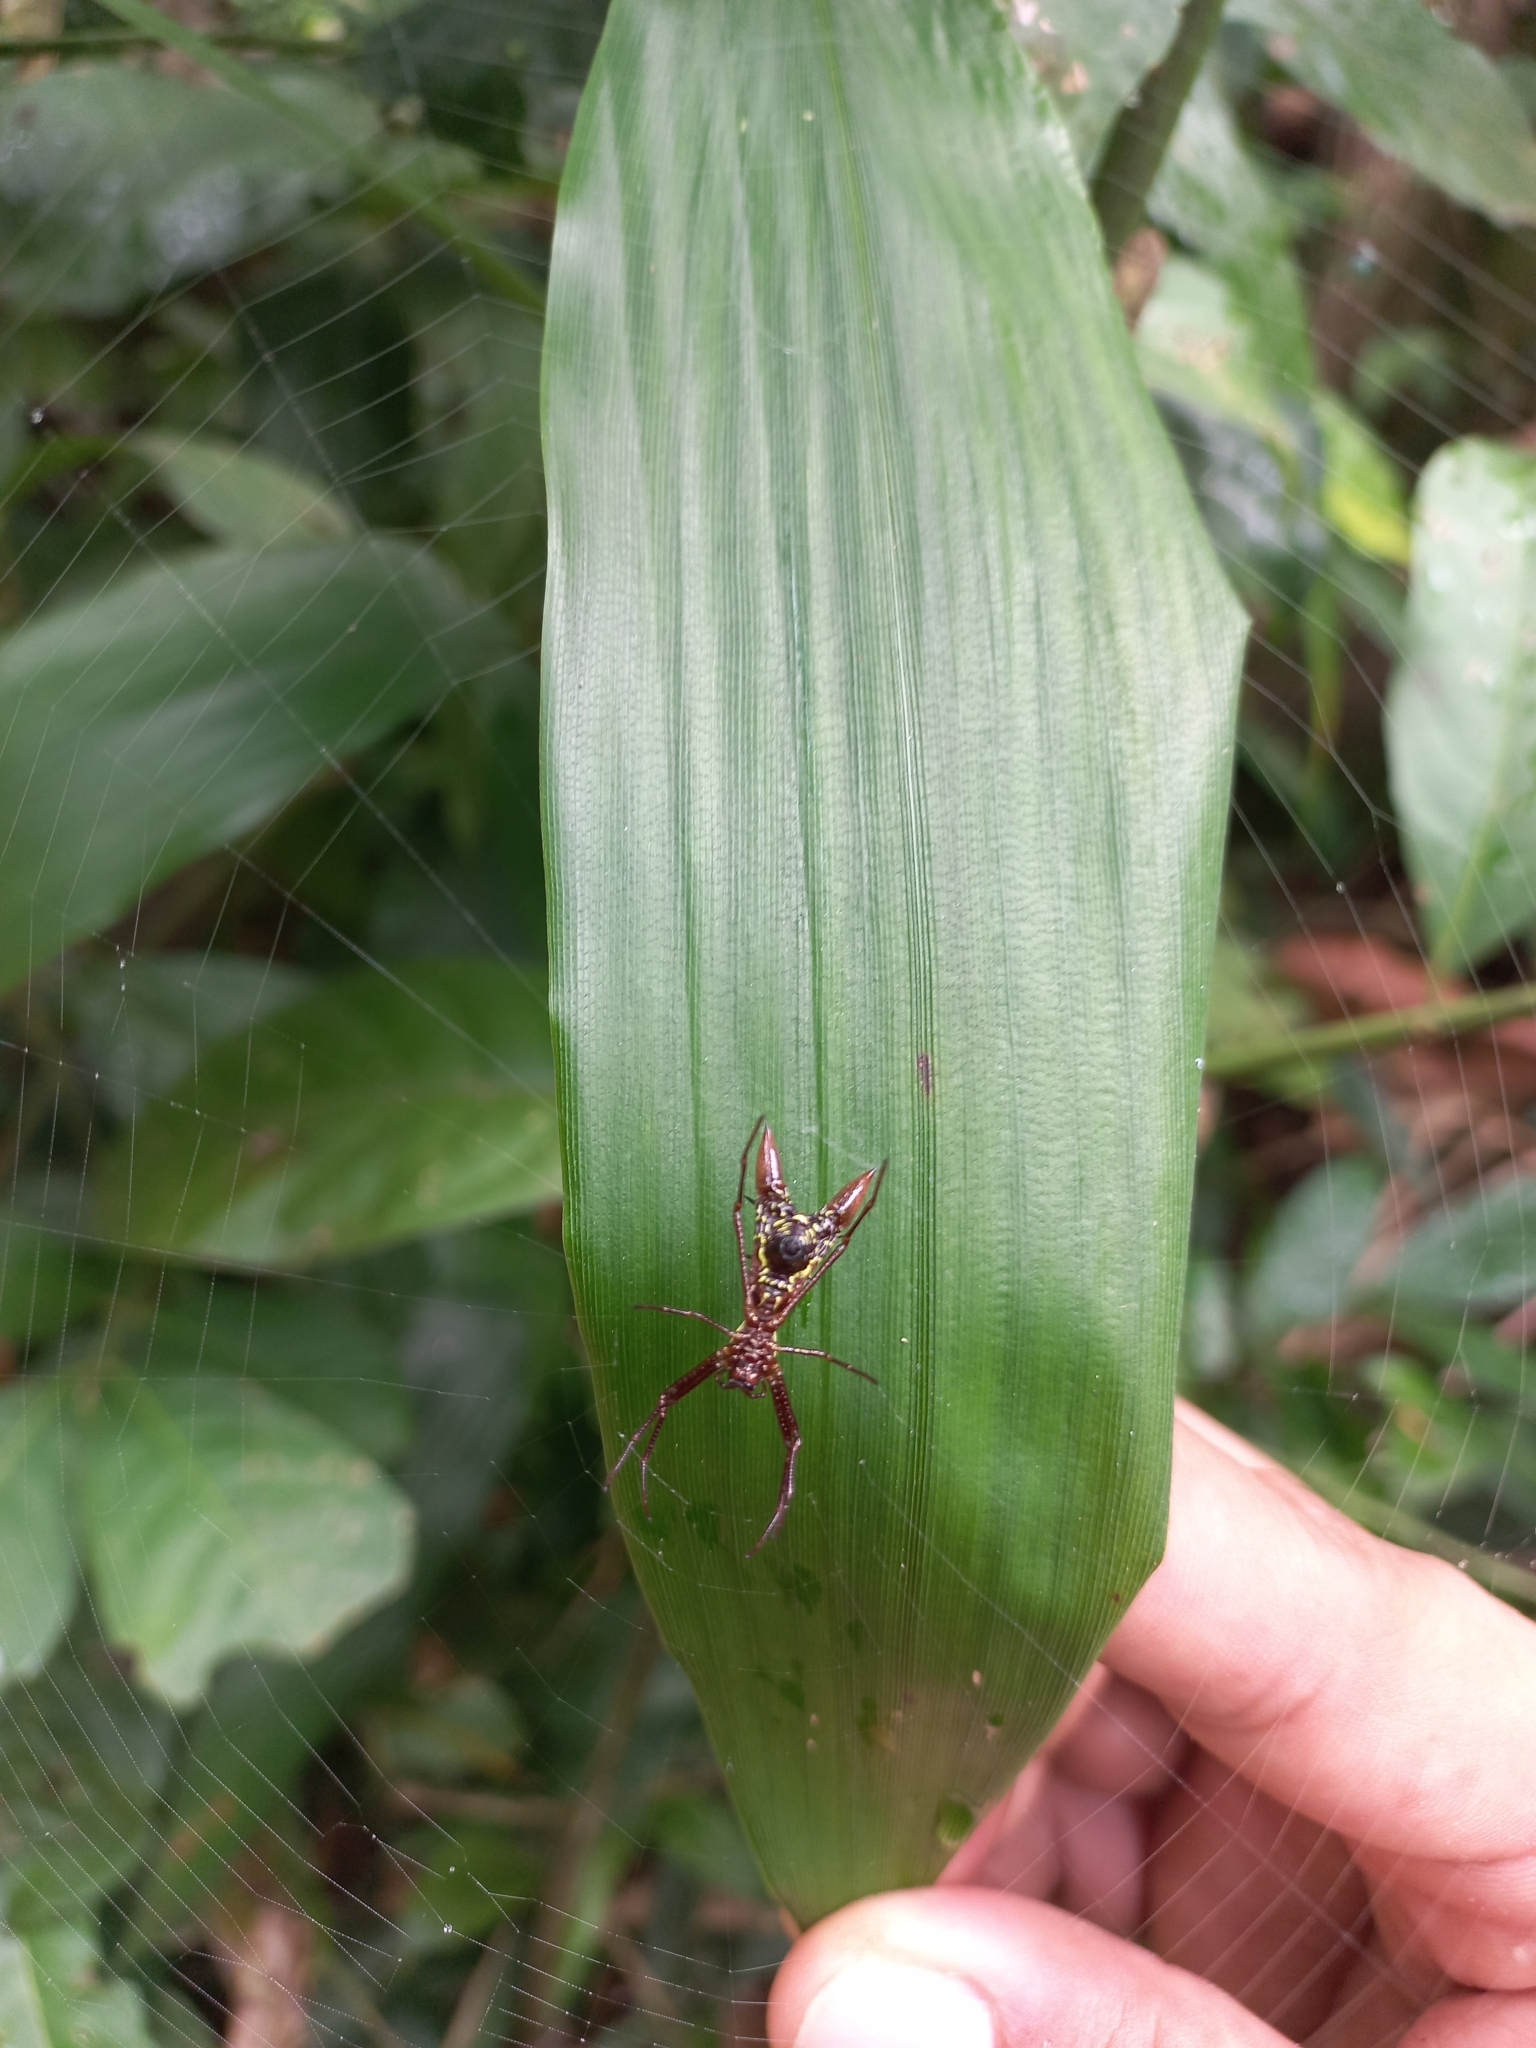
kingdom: Animalia
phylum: Arthropoda
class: Arachnida
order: Araneae
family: Araneidae
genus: Micrathena
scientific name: Micrathena sexspinosa
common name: Orb weavers
